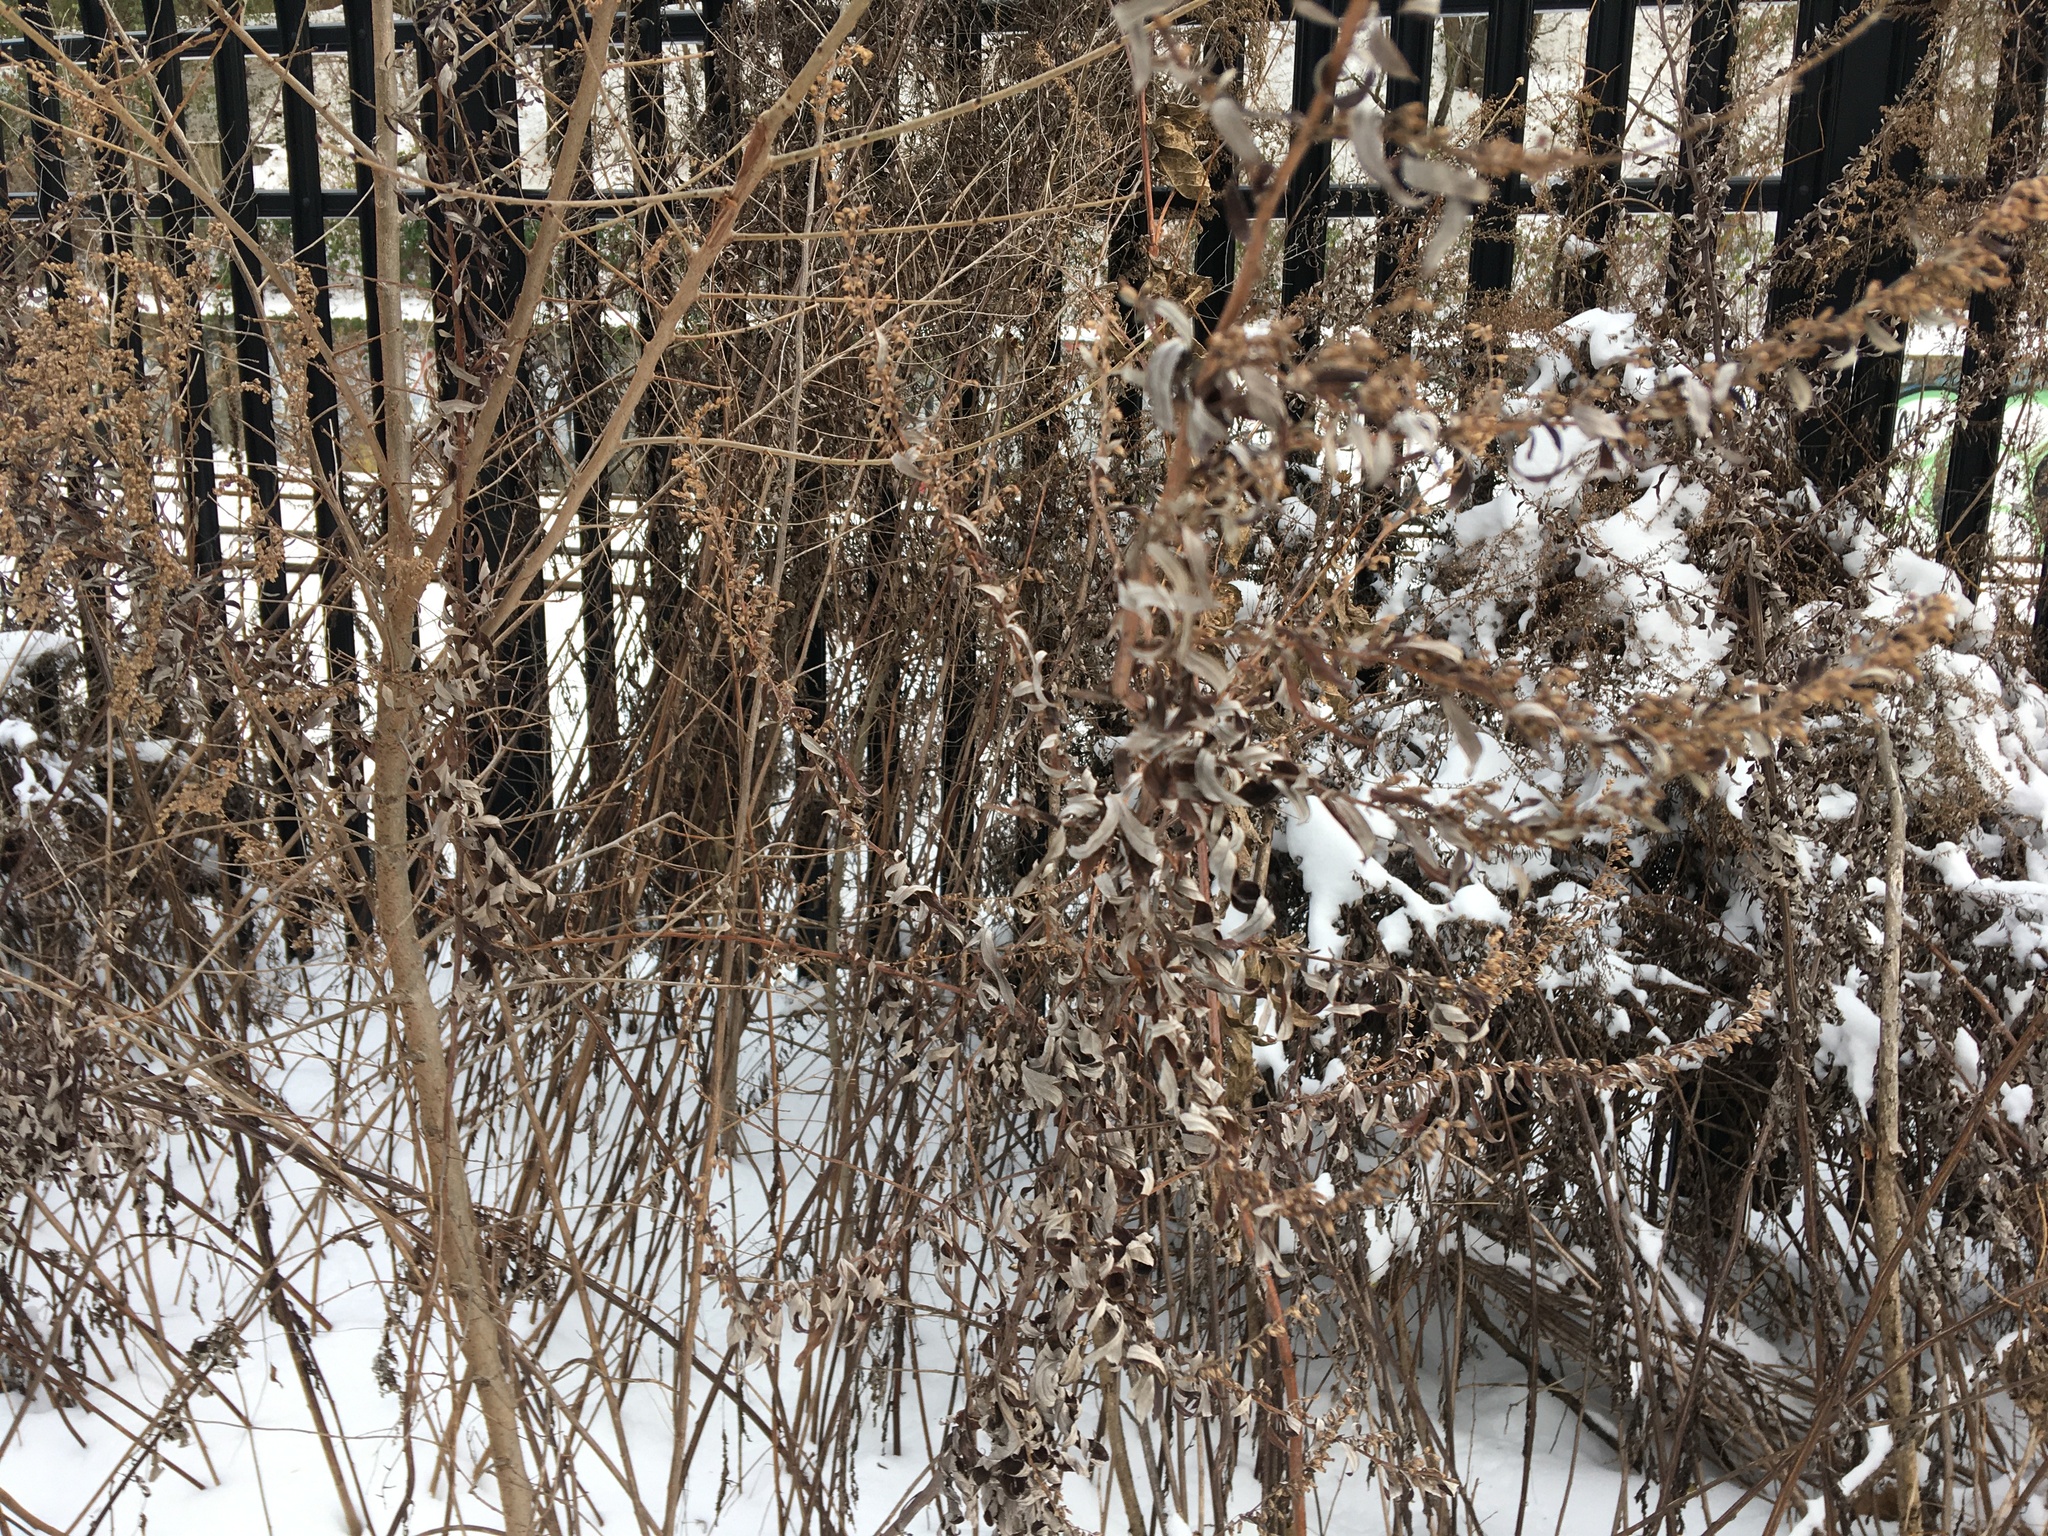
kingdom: Plantae
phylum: Tracheophyta
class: Magnoliopsida
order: Asterales
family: Asteraceae
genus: Artemisia
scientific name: Artemisia vulgaris
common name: Mugwort
